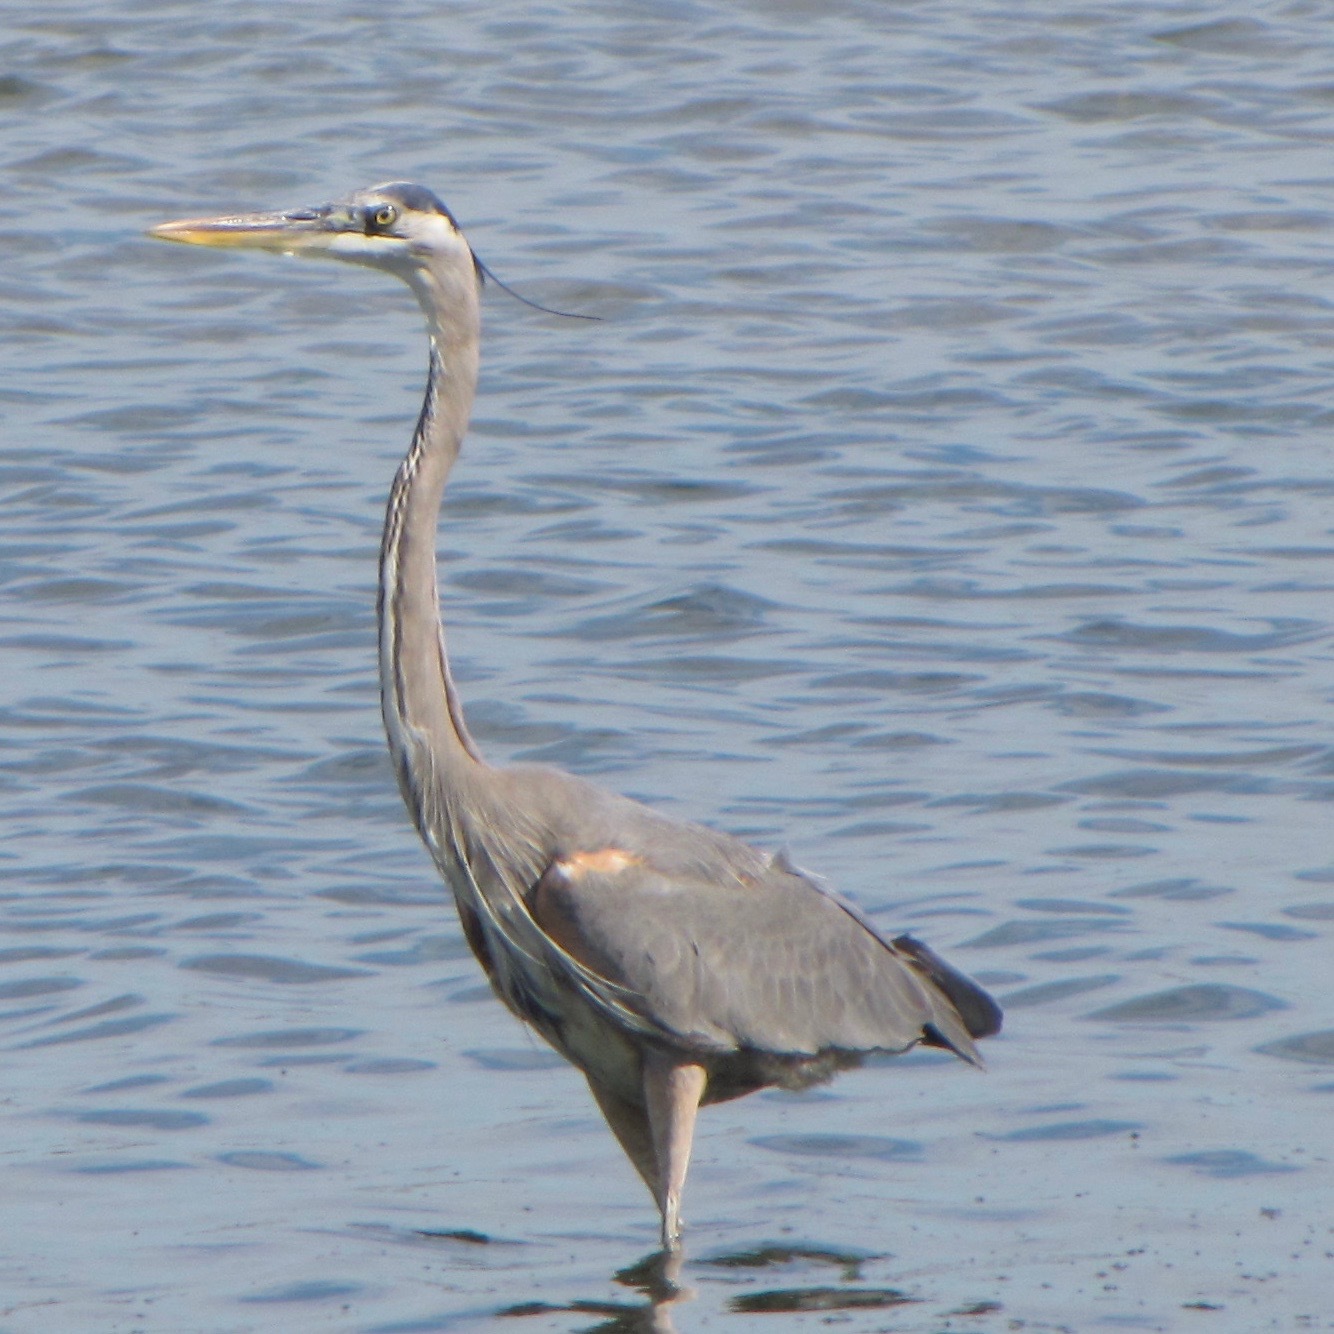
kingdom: Animalia
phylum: Chordata
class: Aves
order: Pelecaniformes
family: Ardeidae
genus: Ardea
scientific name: Ardea herodias
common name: Great blue heron
